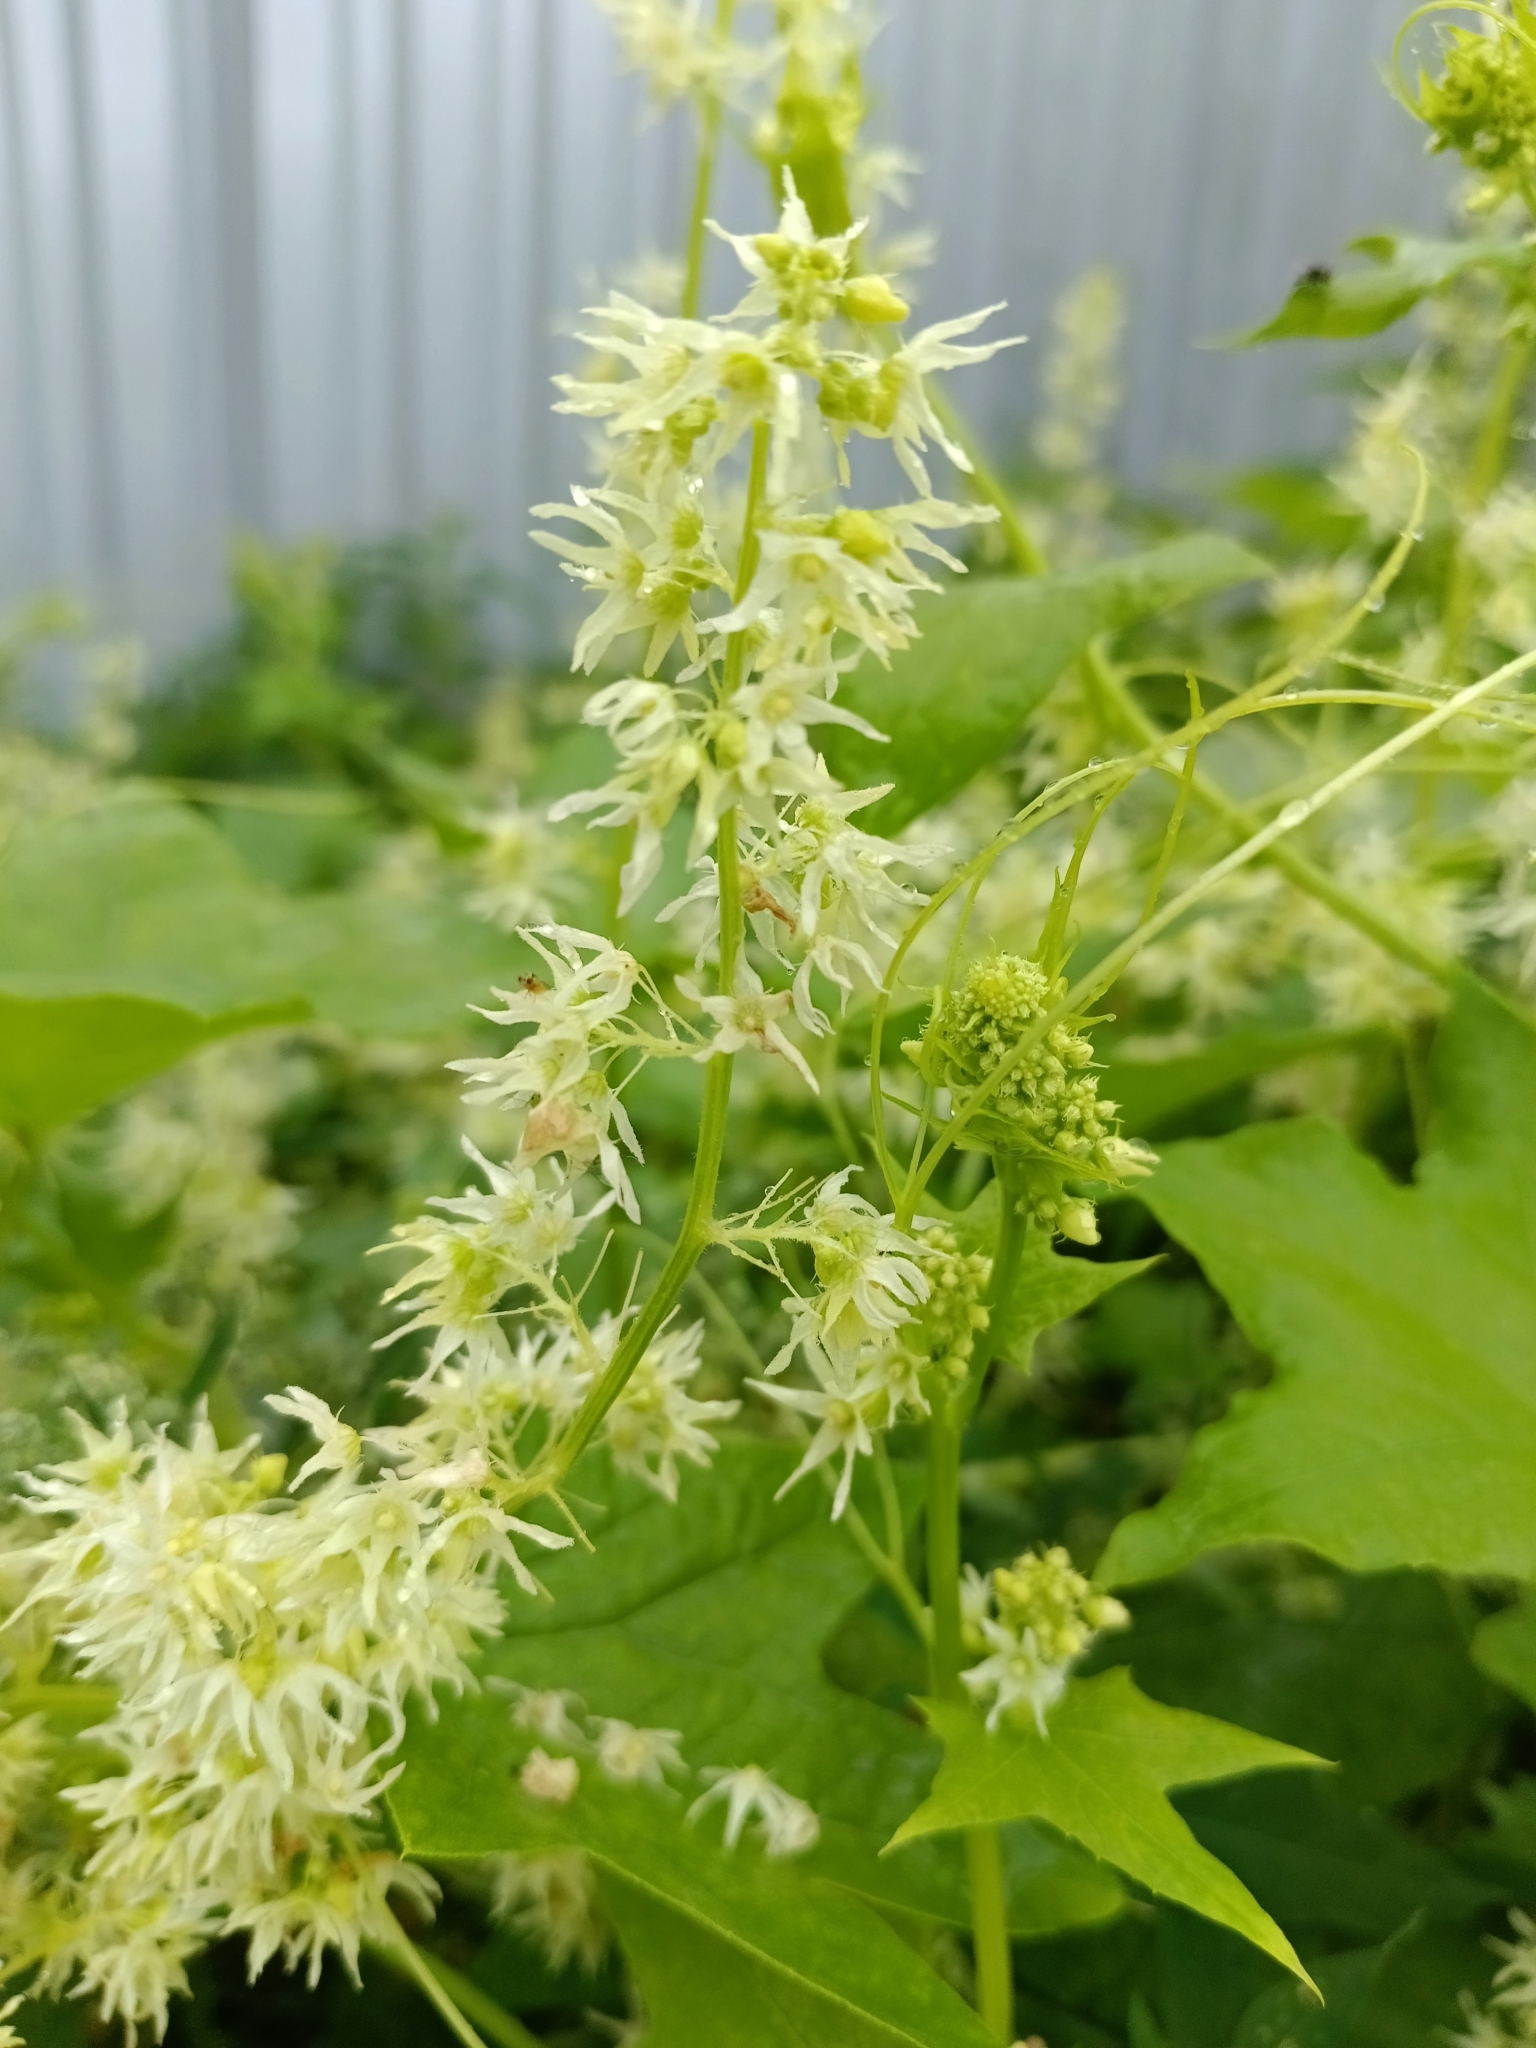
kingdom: Plantae
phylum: Tracheophyta
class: Magnoliopsida
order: Cucurbitales
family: Cucurbitaceae
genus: Echinocystis
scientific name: Echinocystis lobata
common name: Wild cucumber
